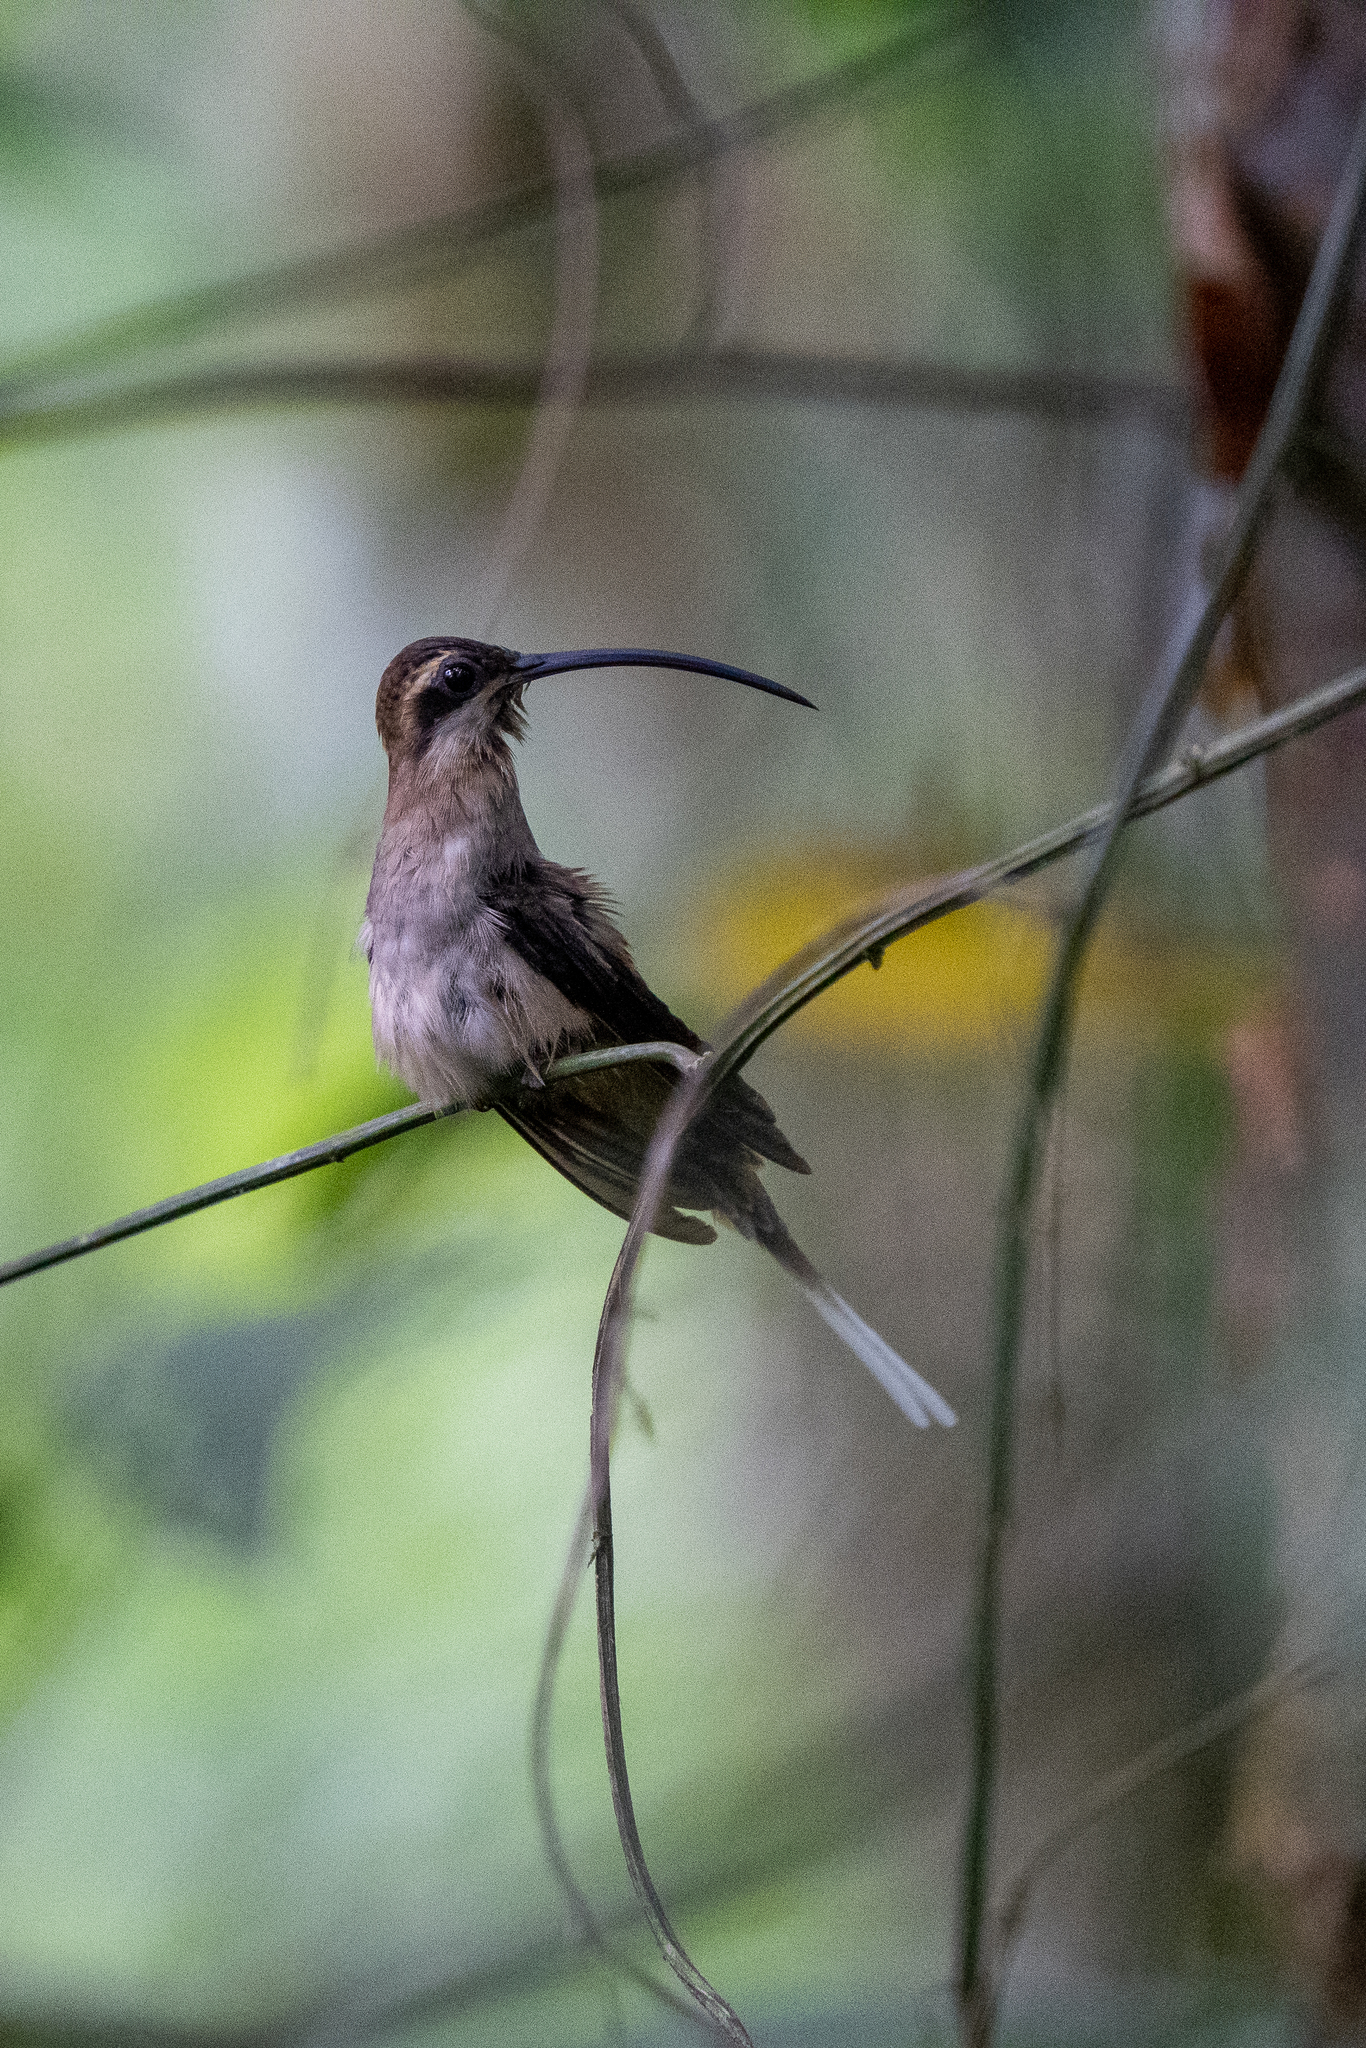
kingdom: Animalia
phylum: Chordata
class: Aves
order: Apodiformes
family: Trochilidae
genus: Phaethornis
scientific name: Phaethornis longirostris
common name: Long-billed hermit
